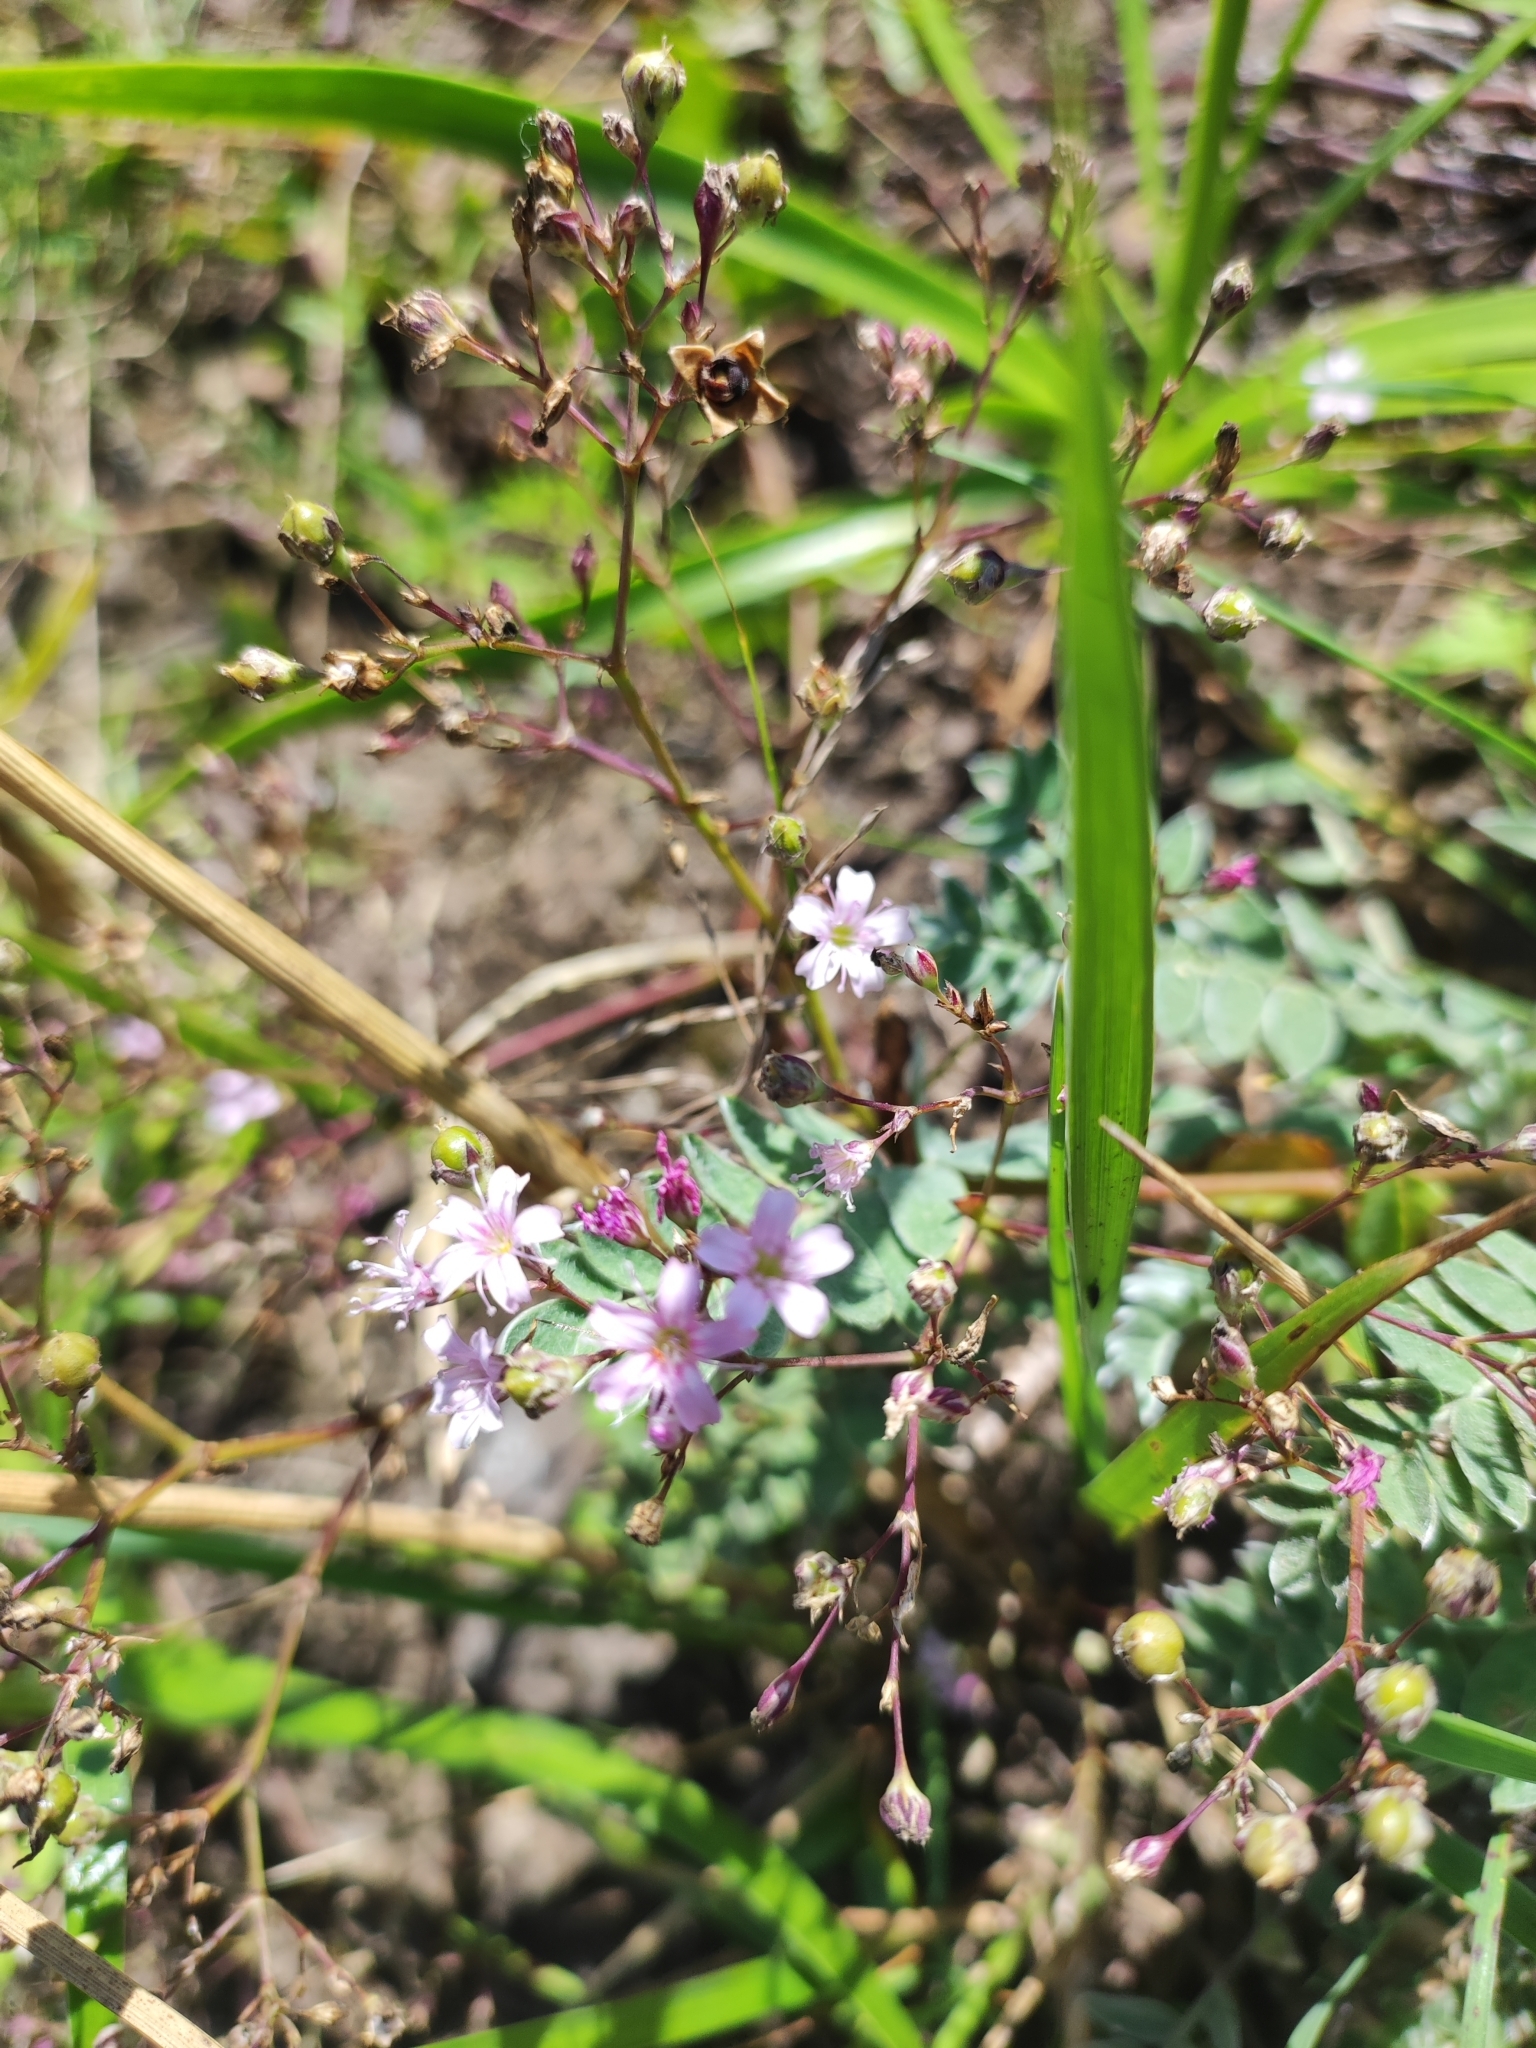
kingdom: Plantae
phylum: Tracheophyta
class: Magnoliopsida
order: Caryophyllales
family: Caryophyllaceae
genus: Gypsophila
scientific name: Gypsophila pacifica
